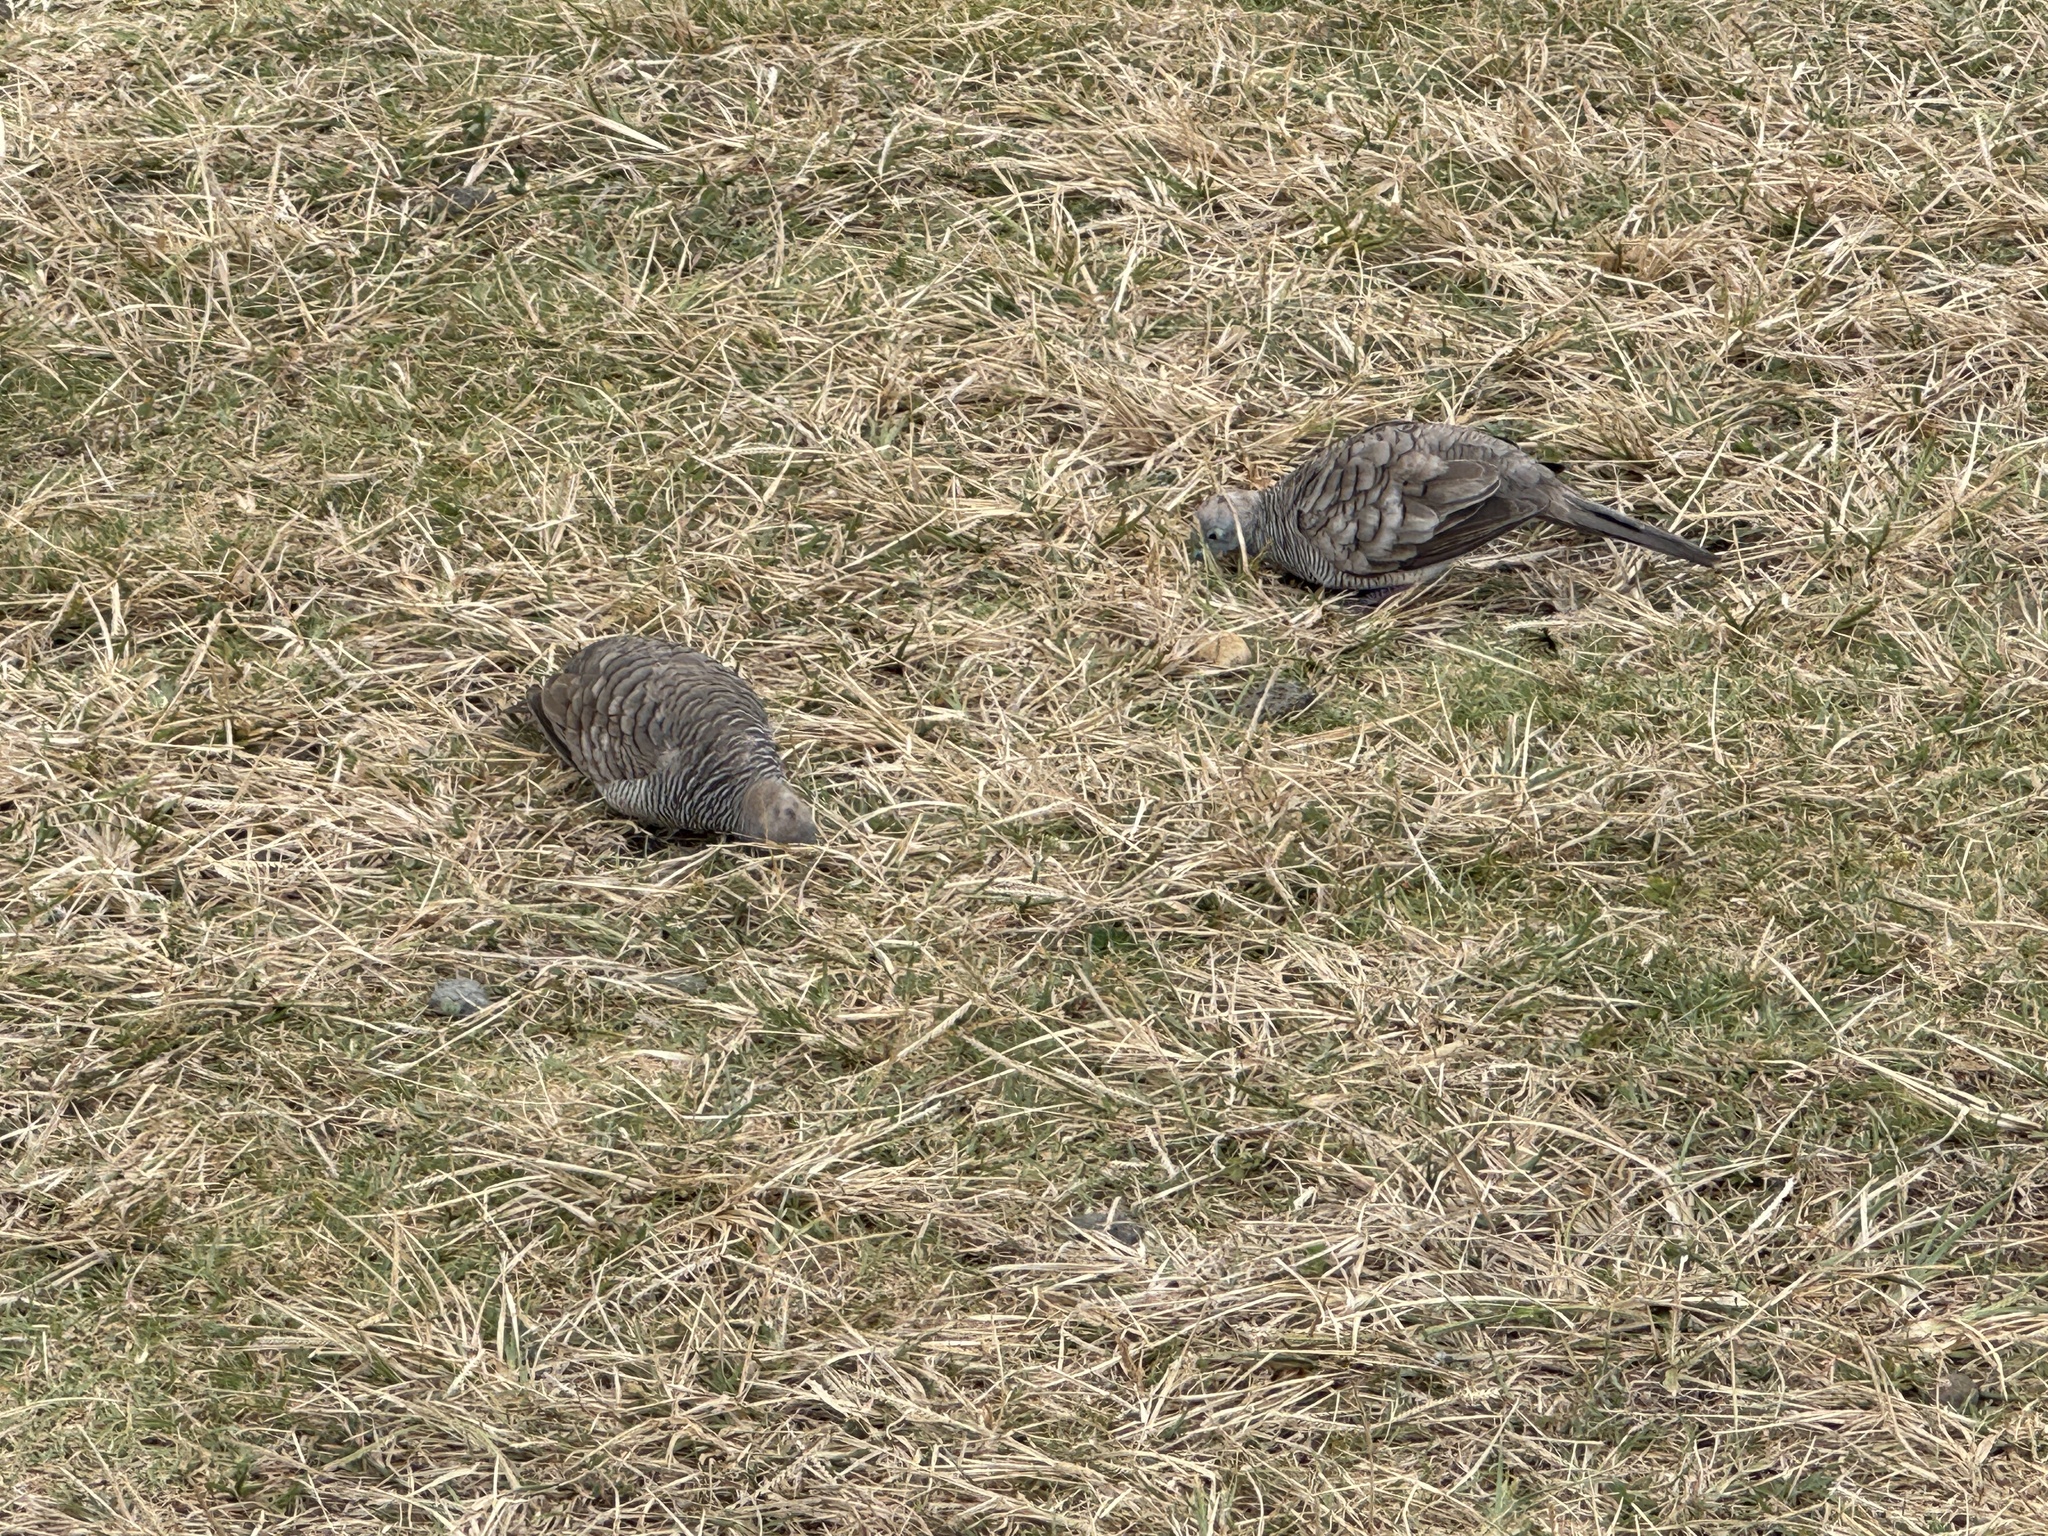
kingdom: Animalia
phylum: Chordata
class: Aves
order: Columbiformes
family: Columbidae
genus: Geopelia
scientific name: Geopelia striata
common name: Zebra dove
